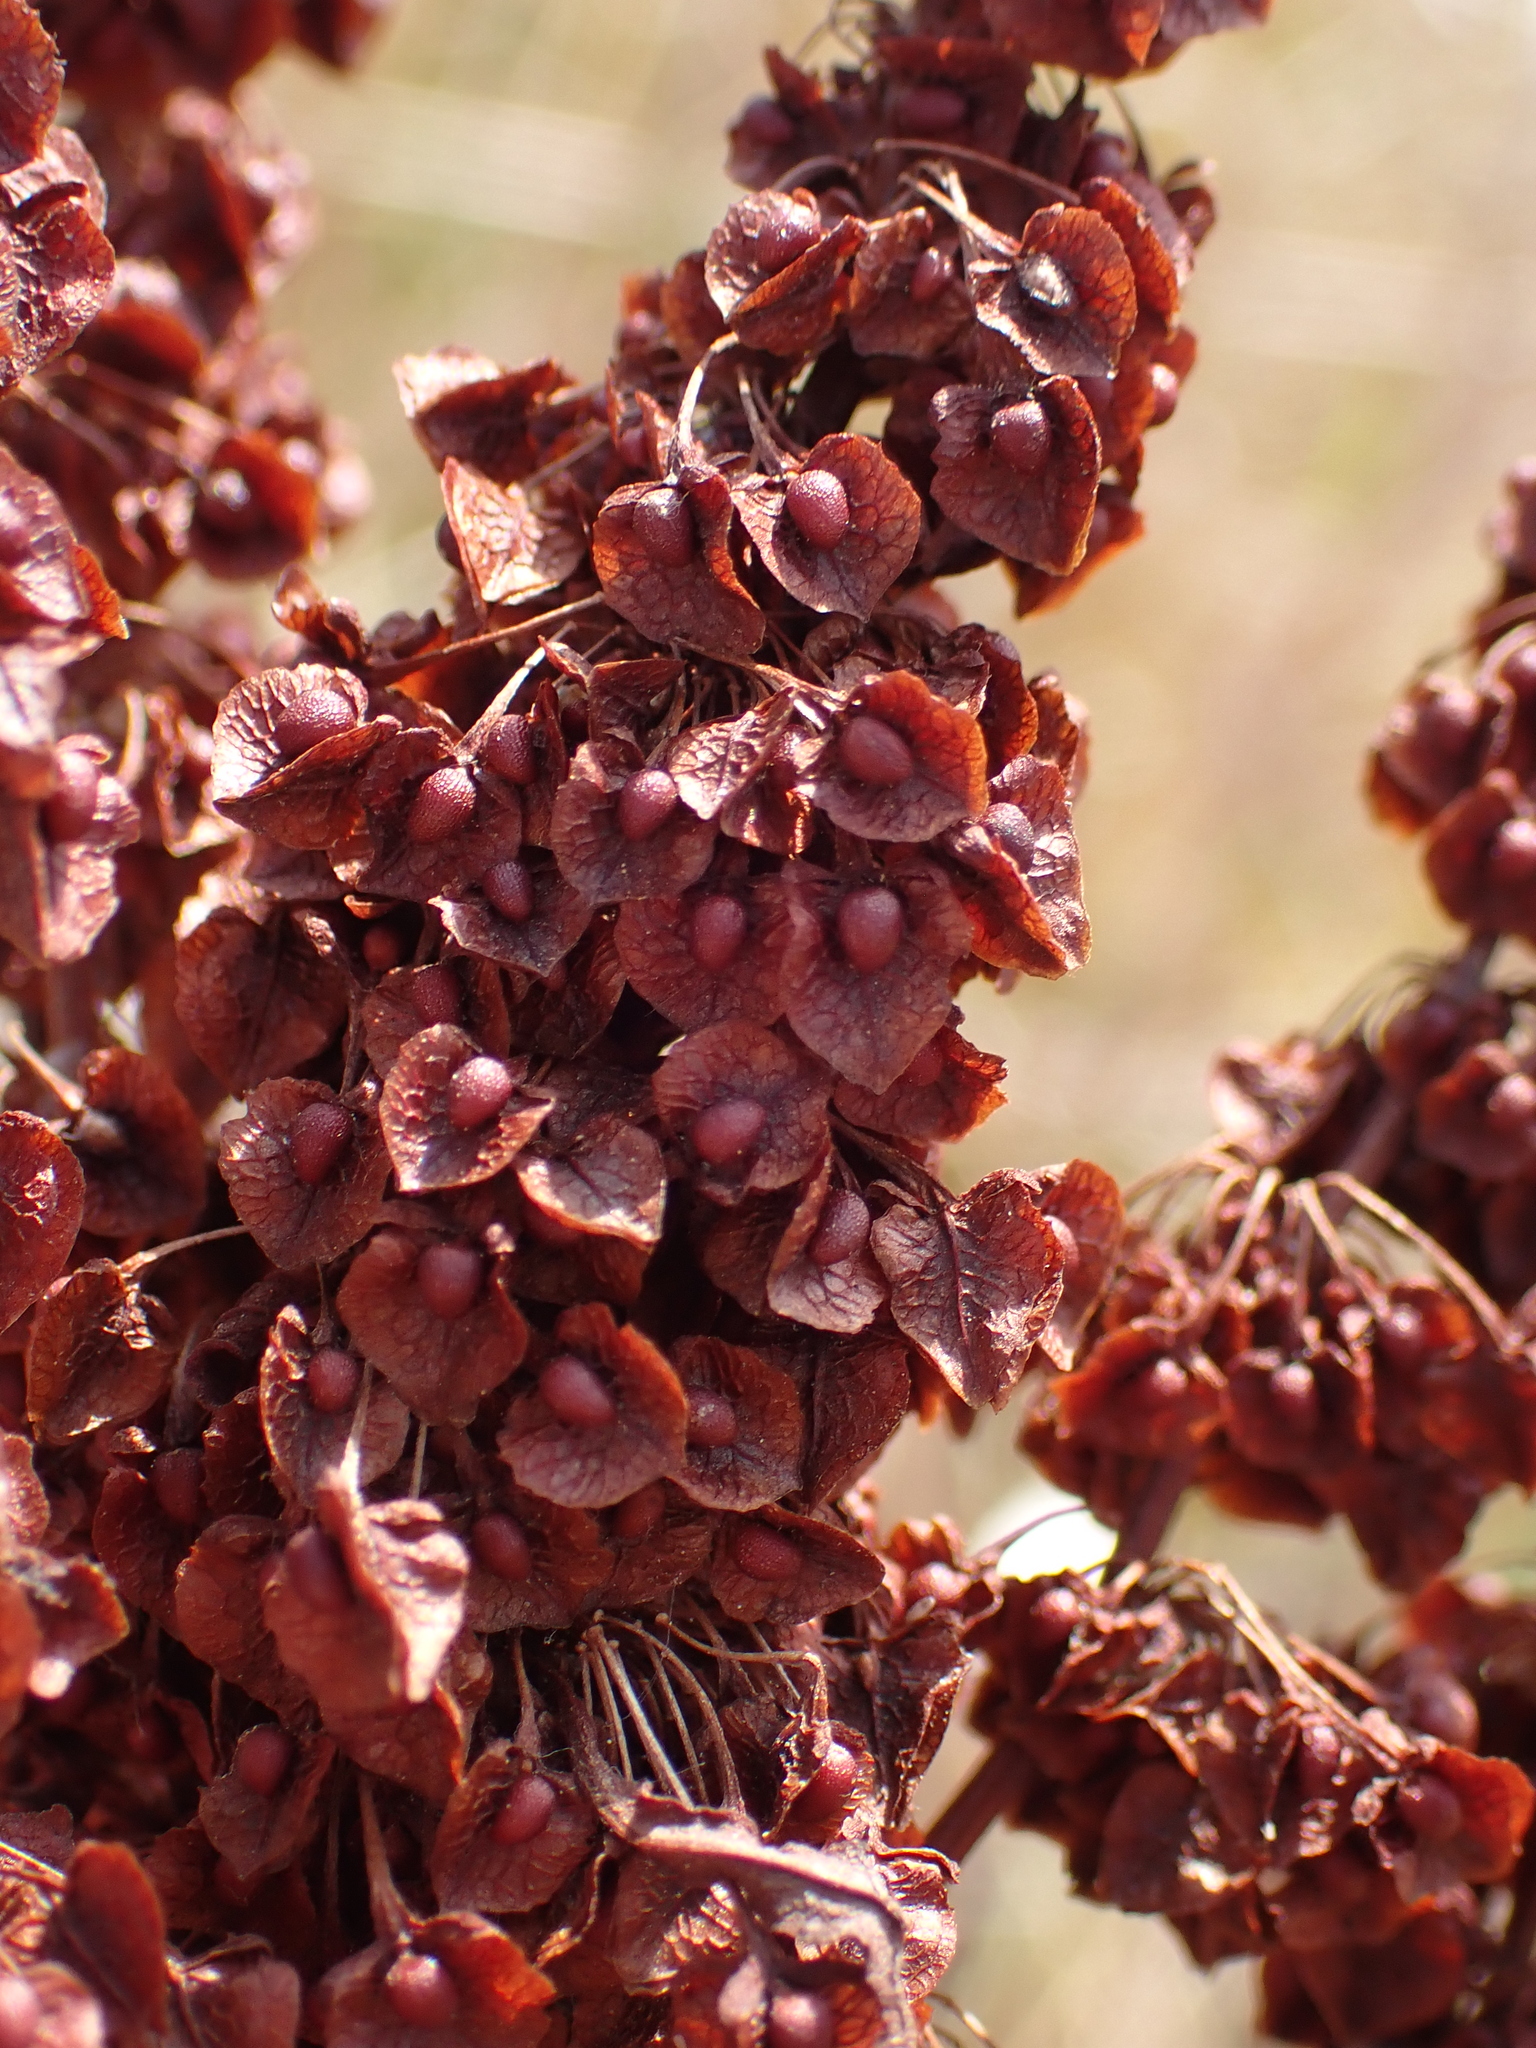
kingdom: Plantae
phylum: Tracheophyta
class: Magnoliopsida
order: Caryophyllales
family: Polygonaceae
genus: Rumex
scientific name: Rumex crispus
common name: Curled dock
